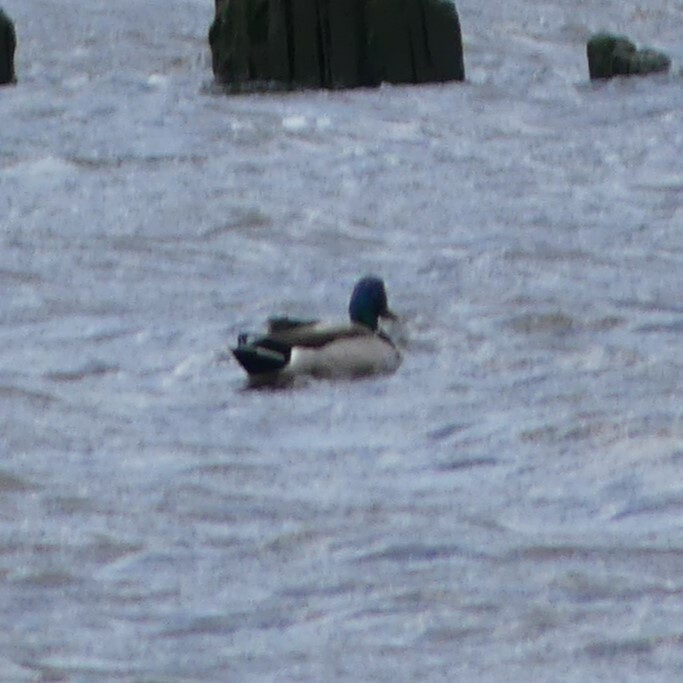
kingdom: Animalia
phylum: Chordata
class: Aves
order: Anseriformes
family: Anatidae
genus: Anas
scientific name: Anas platyrhynchos
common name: Mallard
